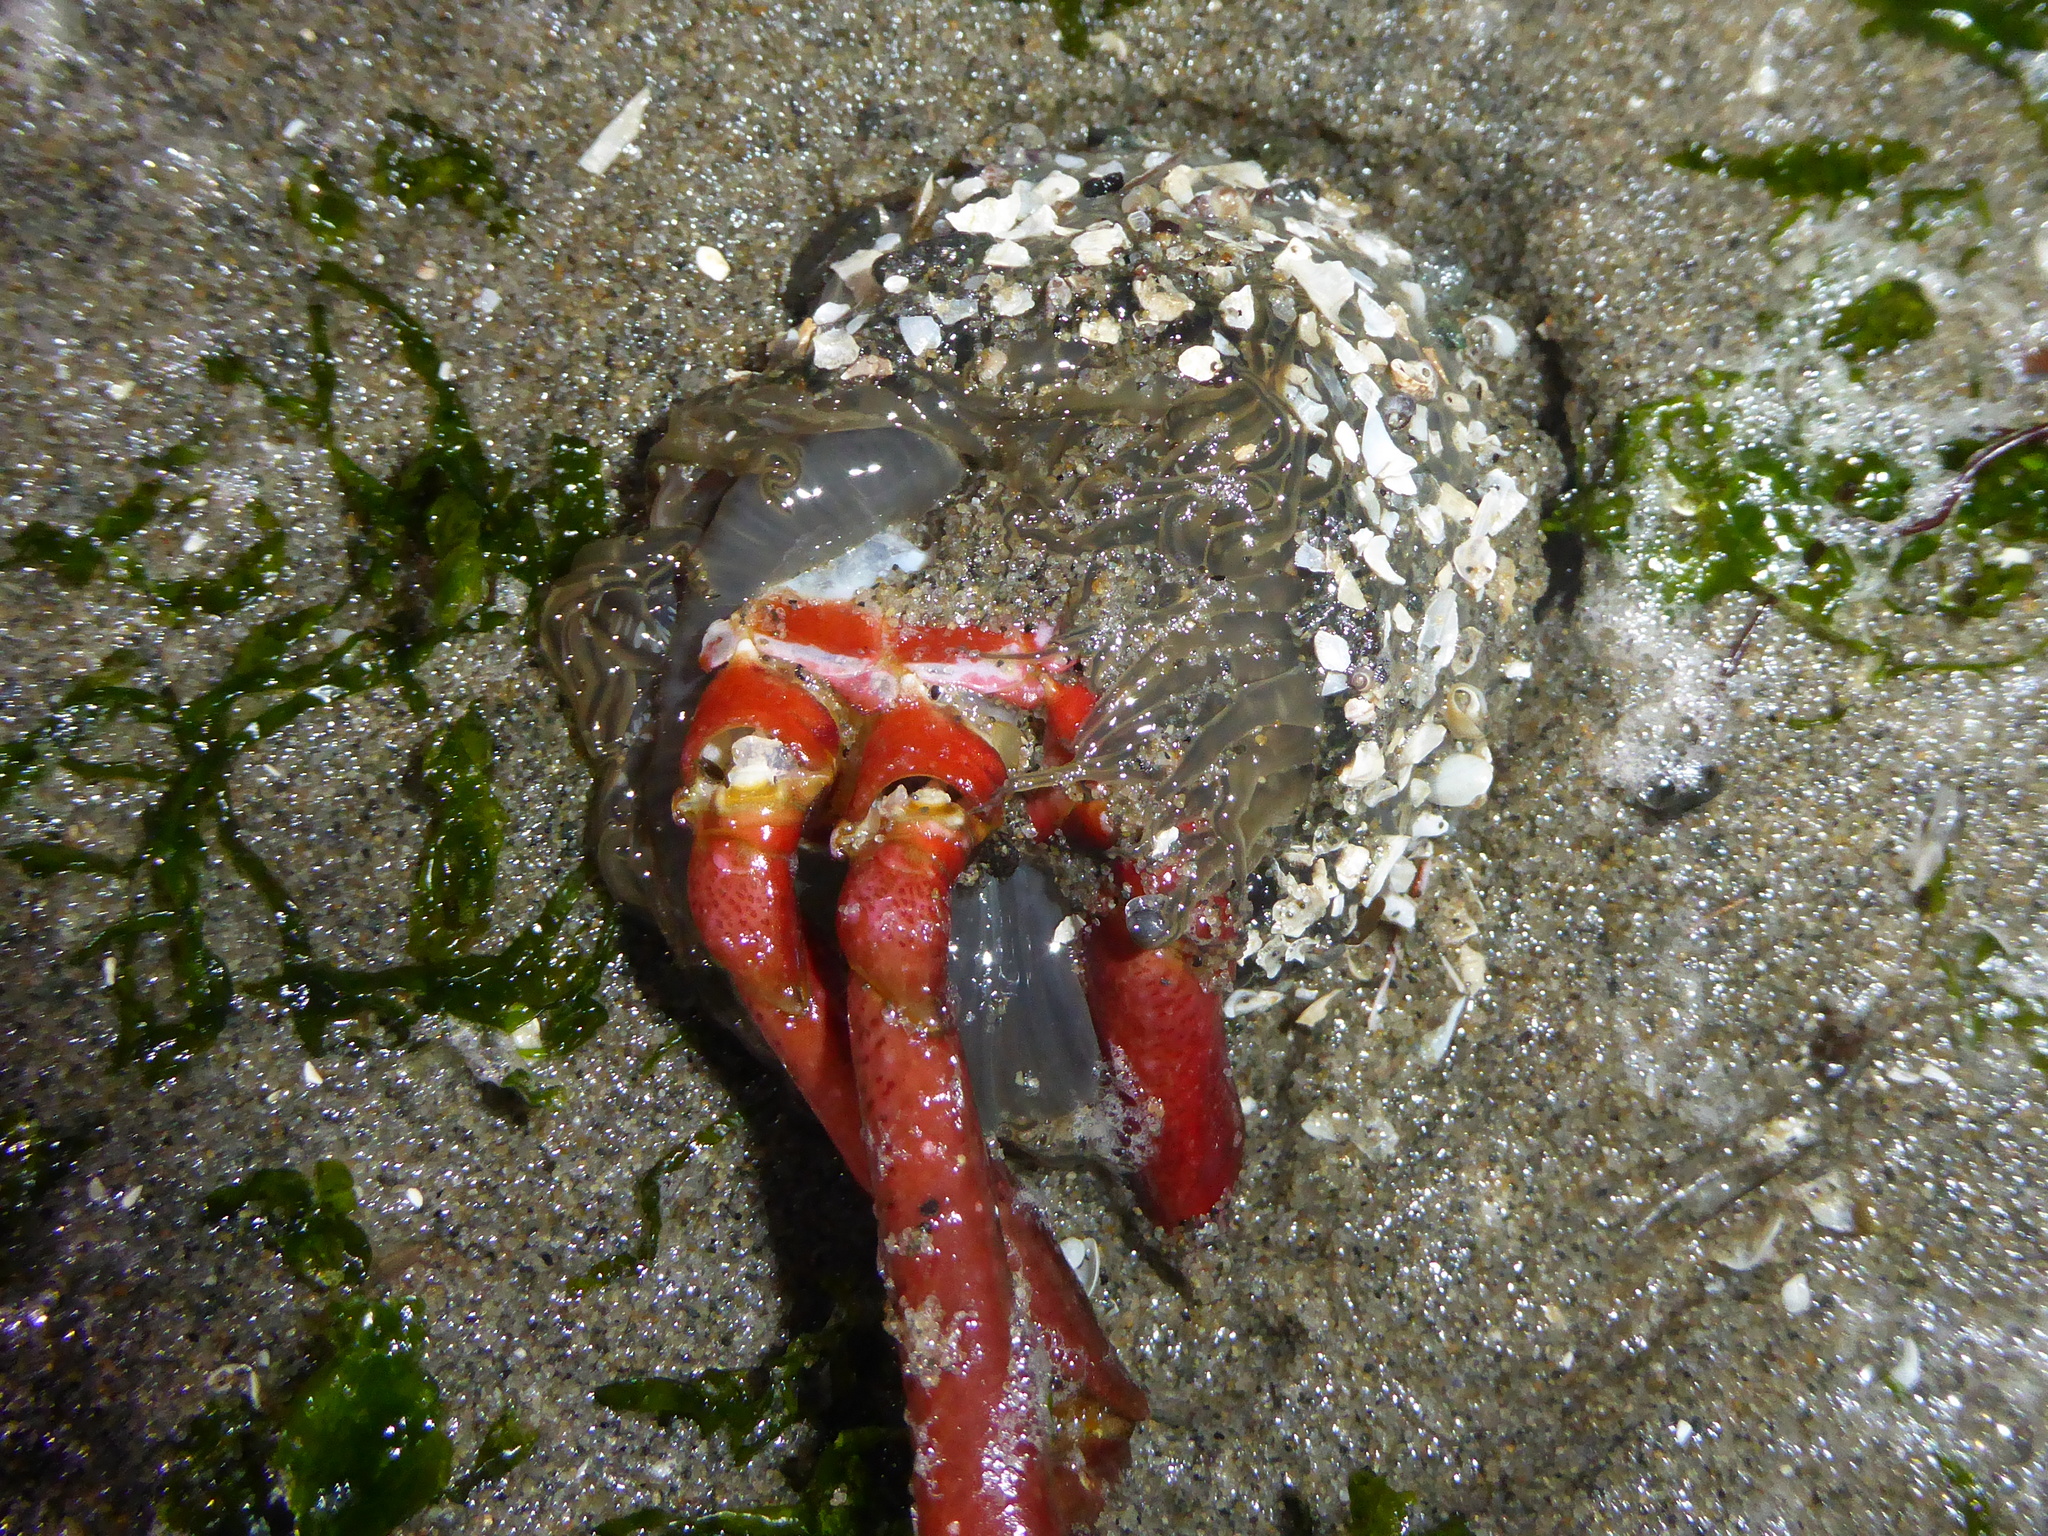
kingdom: Animalia
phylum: Cnidaria
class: Anthozoa
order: Actiniaria
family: Actiniidae
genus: Anthopleura
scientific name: Anthopleura artemisia
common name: Buried sea anemone
